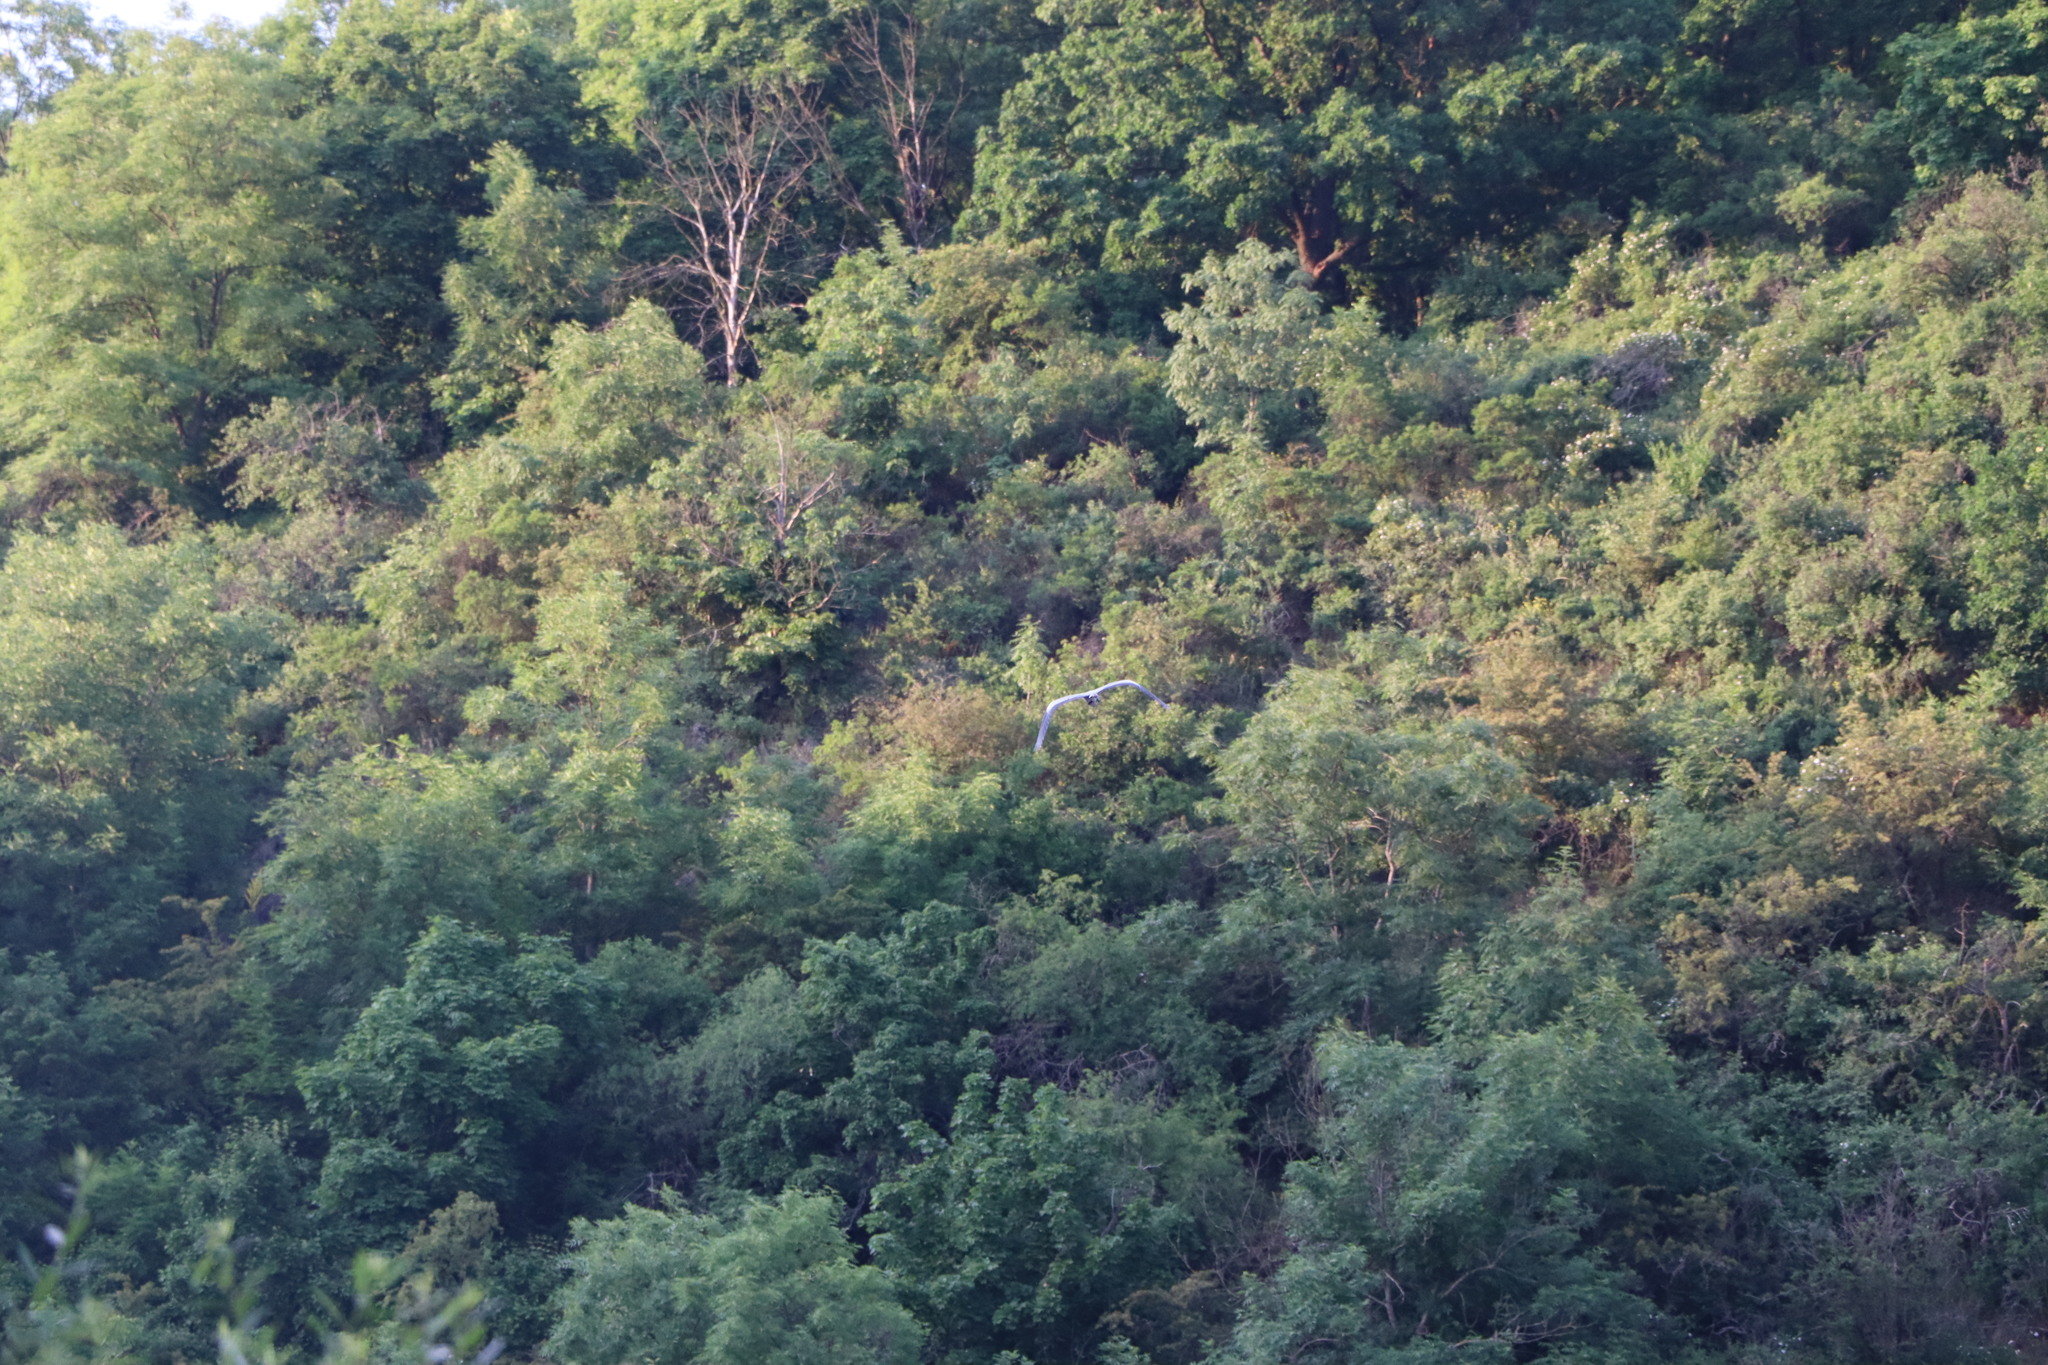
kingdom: Animalia
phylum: Chordata
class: Aves
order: Pelecaniformes
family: Ardeidae
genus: Ardea
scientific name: Ardea cinerea
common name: Grey heron
